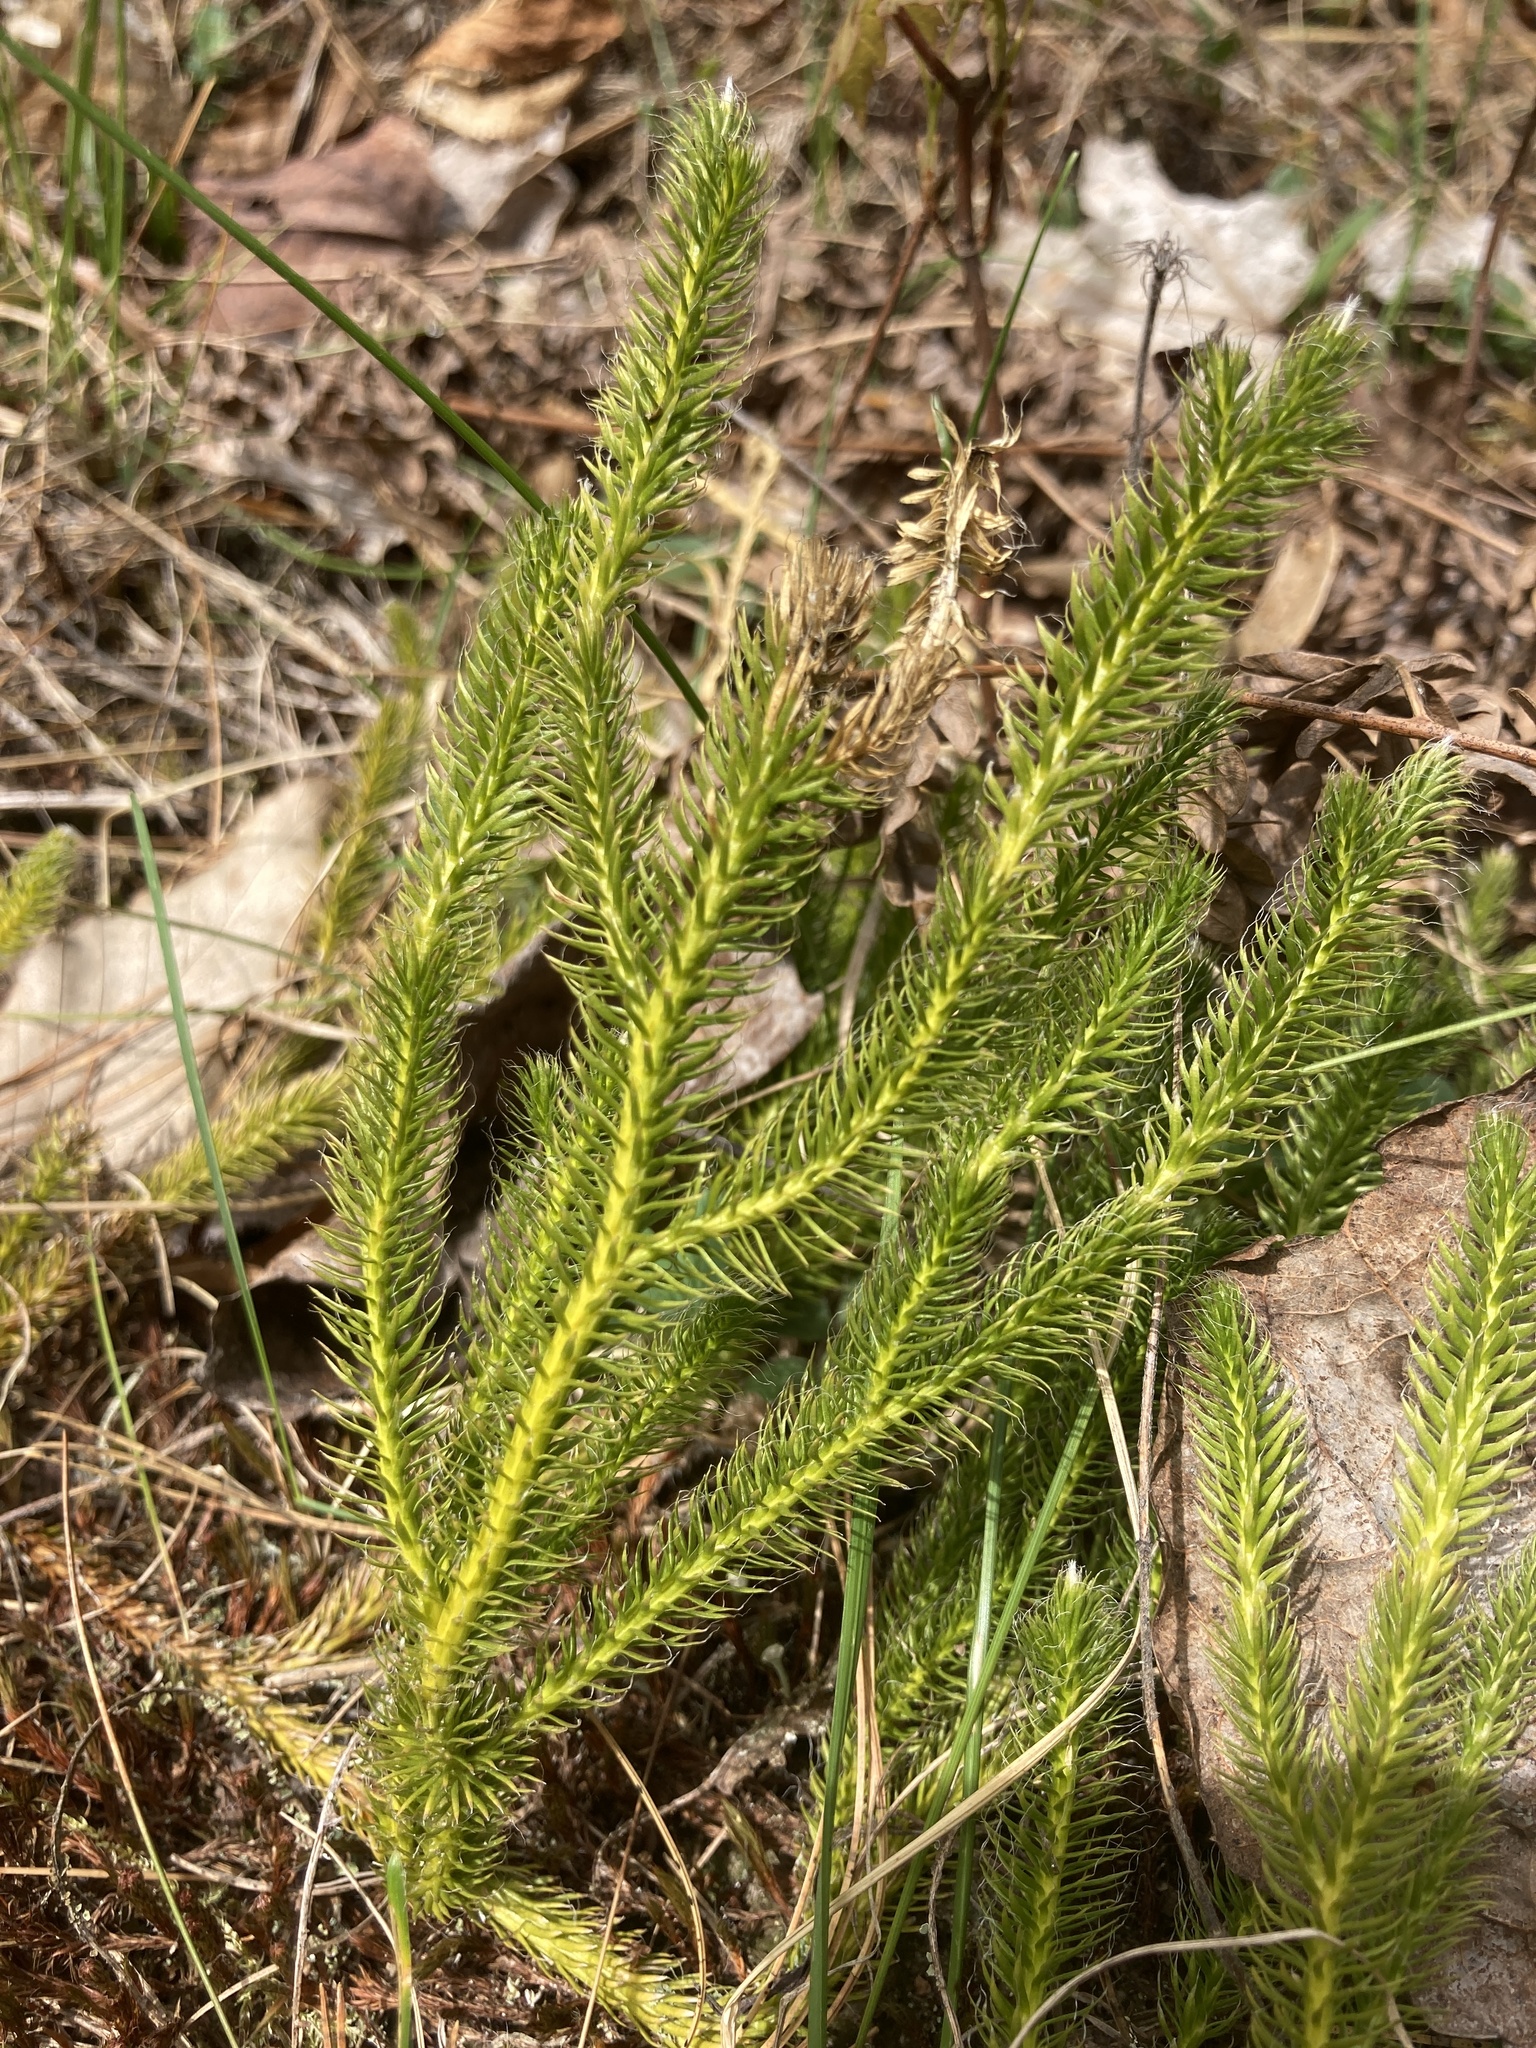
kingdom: Plantae
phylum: Tracheophyta
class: Lycopodiopsida
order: Lycopodiales
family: Lycopodiaceae
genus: Lycopodium
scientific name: Lycopodium clavatum
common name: Stag's-horn clubmoss
